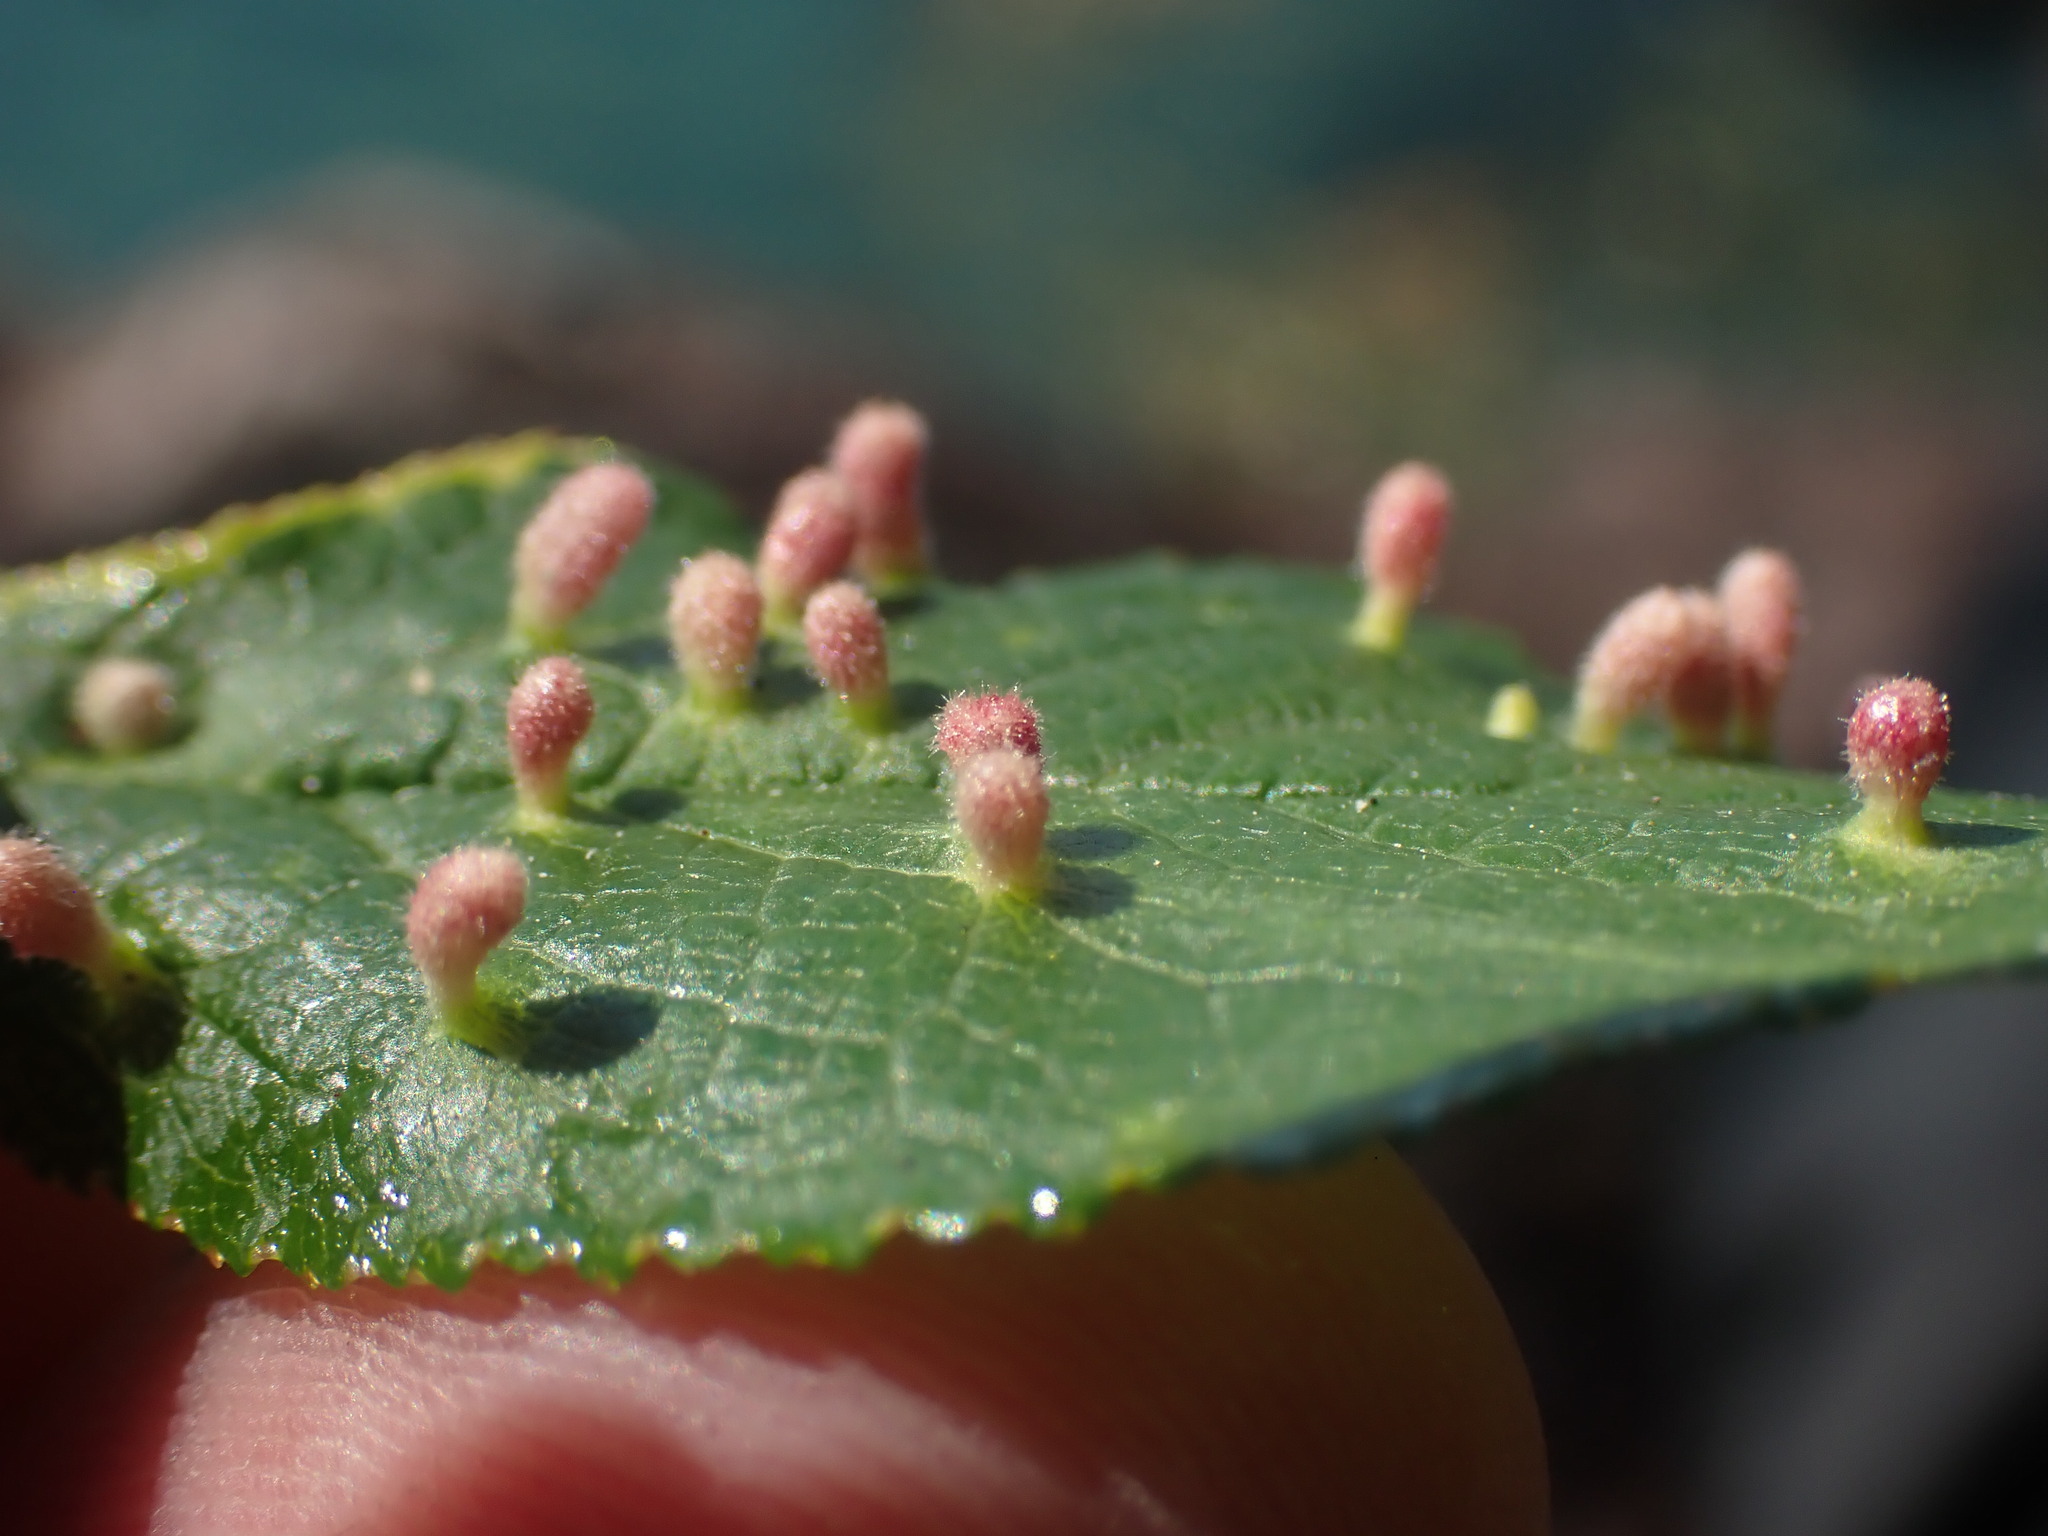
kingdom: Animalia
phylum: Arthropoda
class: Arachnida
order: Trombidiformes
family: Eriophyidae
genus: Eriophyes
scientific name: Eriophyes emarginatae
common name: Plum leaf gall mite
